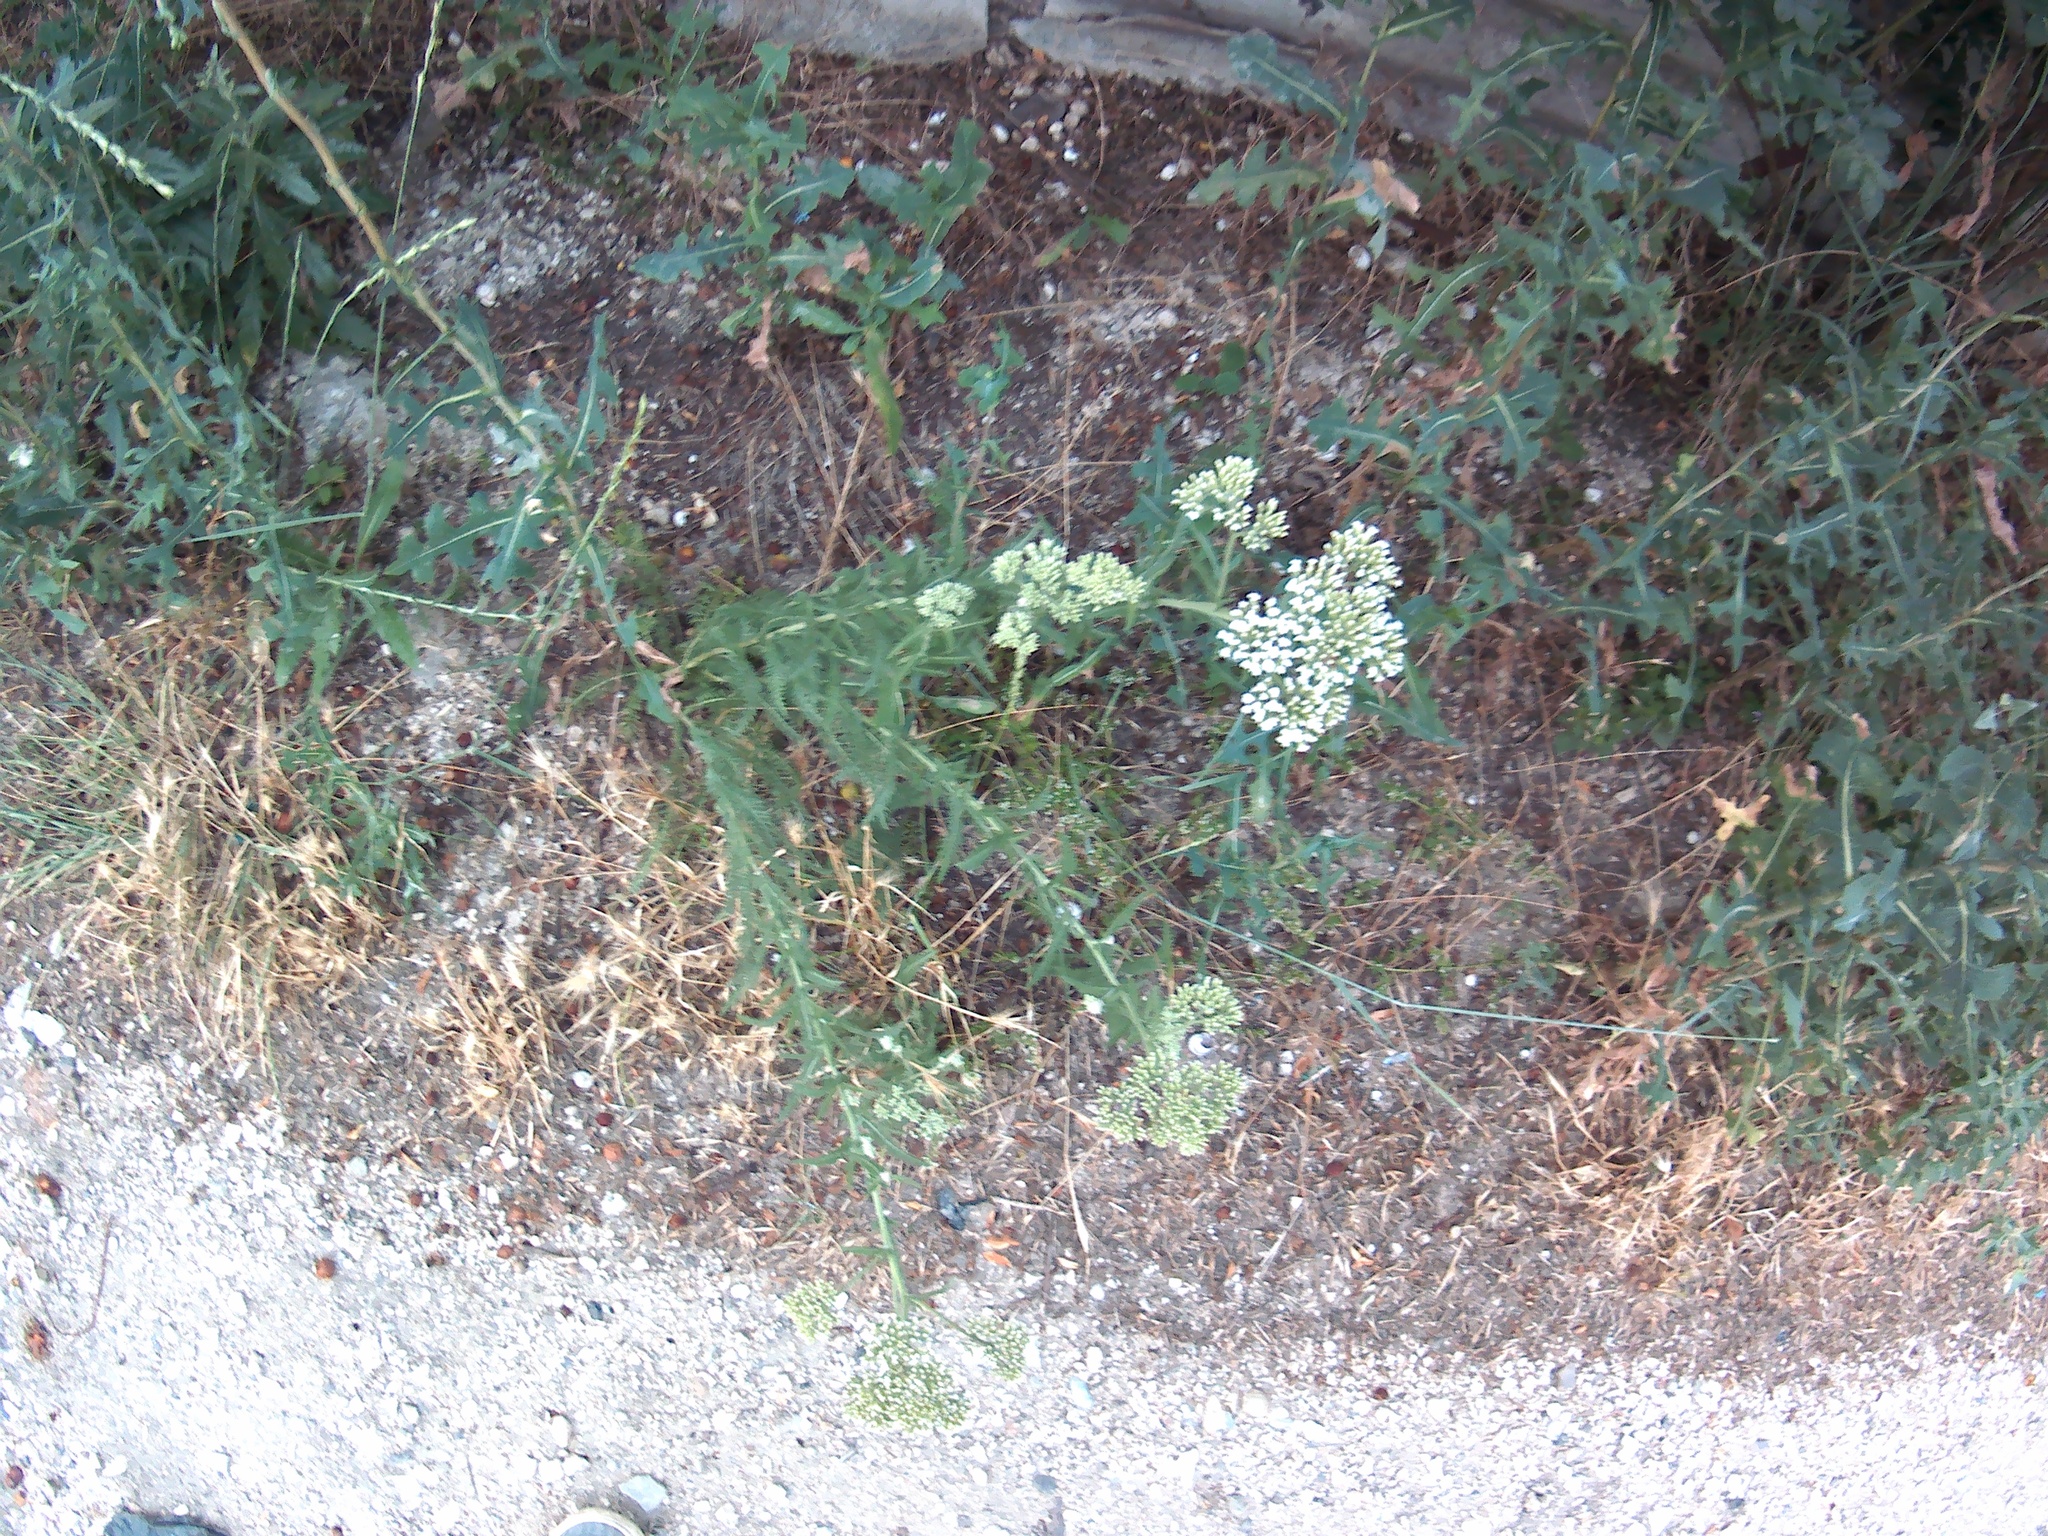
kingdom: Plantae
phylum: Tracheophyta
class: Magnoliopsida
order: Asterales
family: Asteraceae
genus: Achillea
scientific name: Achillea setacea
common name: Bristly yarrow
